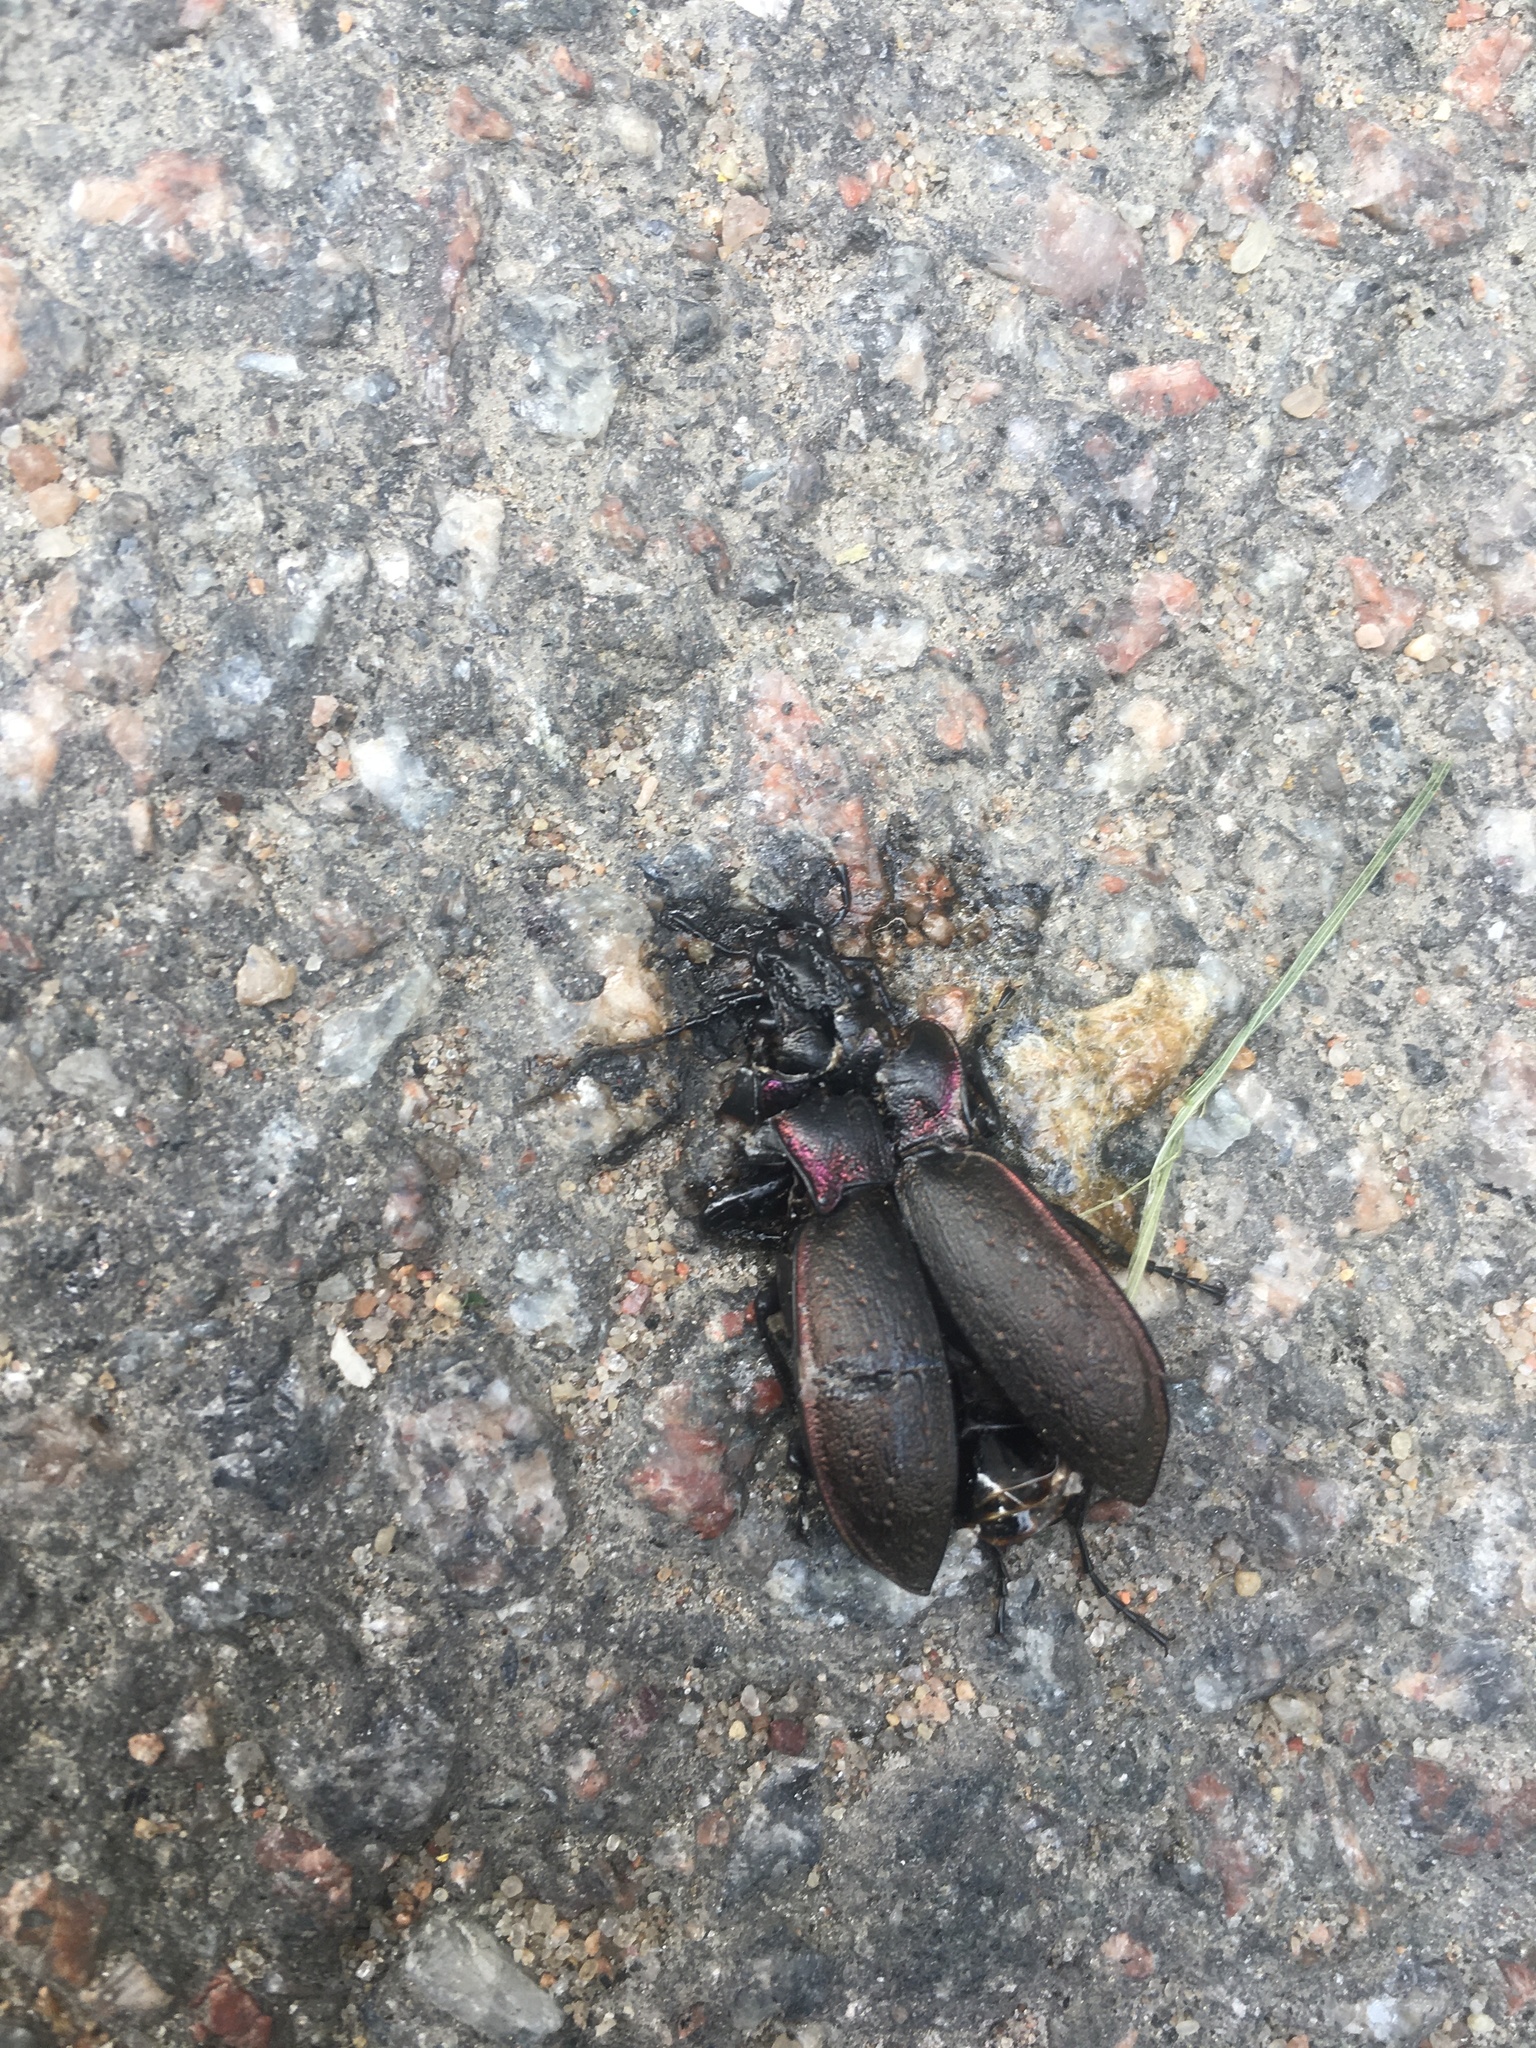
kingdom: Animalia
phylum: Arthropoda
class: Insecta
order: Coleoptera
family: Carabidae
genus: Carabus
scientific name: Carabus nemoralis
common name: European ground beetle
